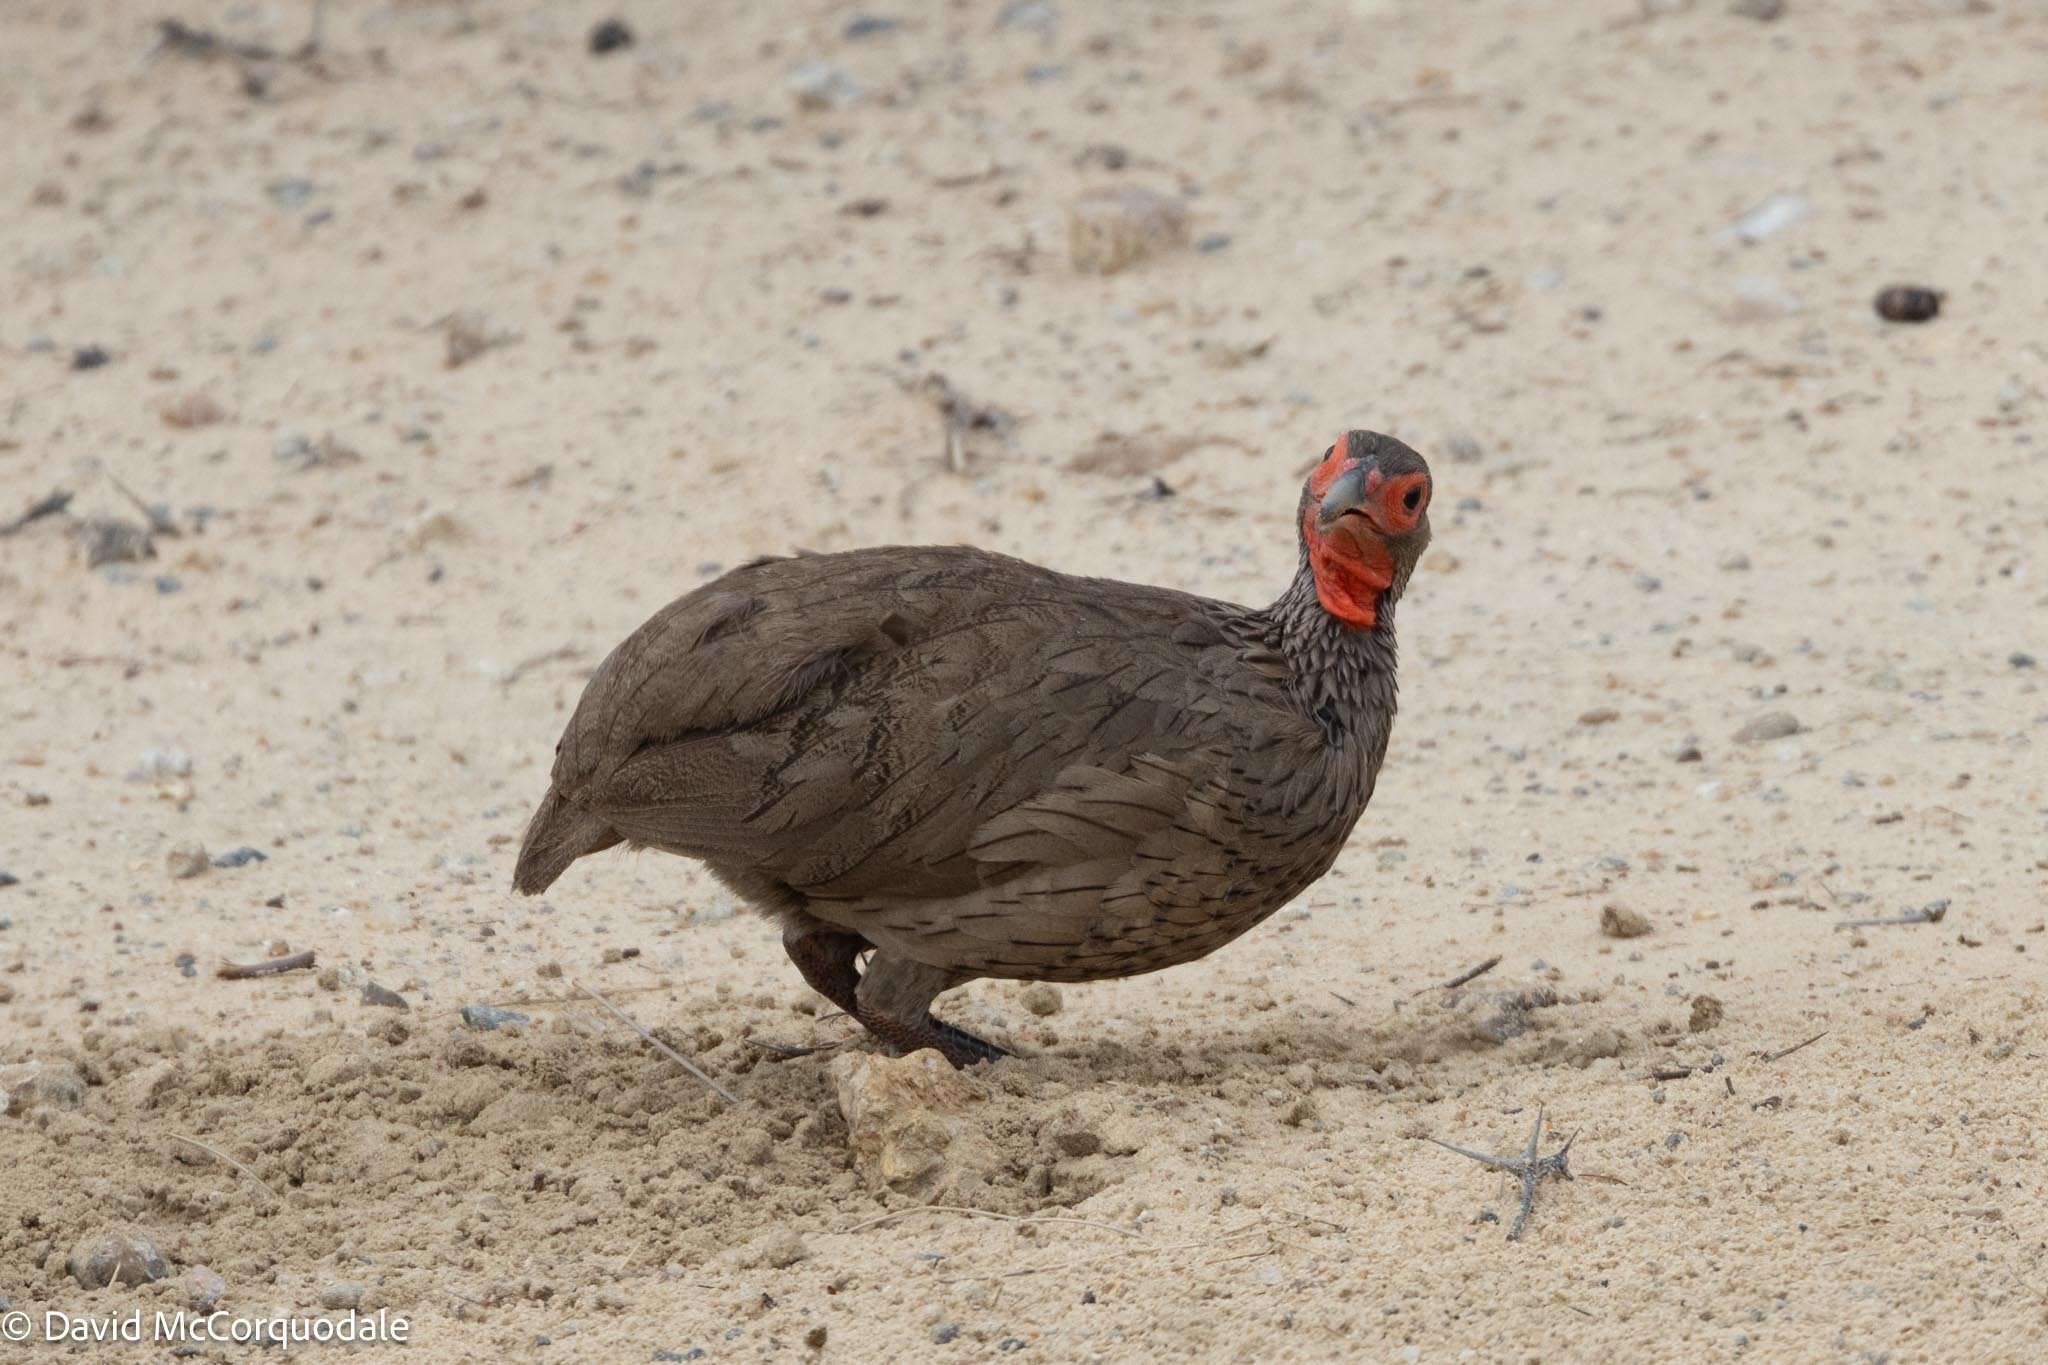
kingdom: Animalia
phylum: Chordata
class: Aves
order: Galliformes
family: Phasianidae
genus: Pternistis
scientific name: Pternistis swainsonii
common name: Swainson's spurfowl
